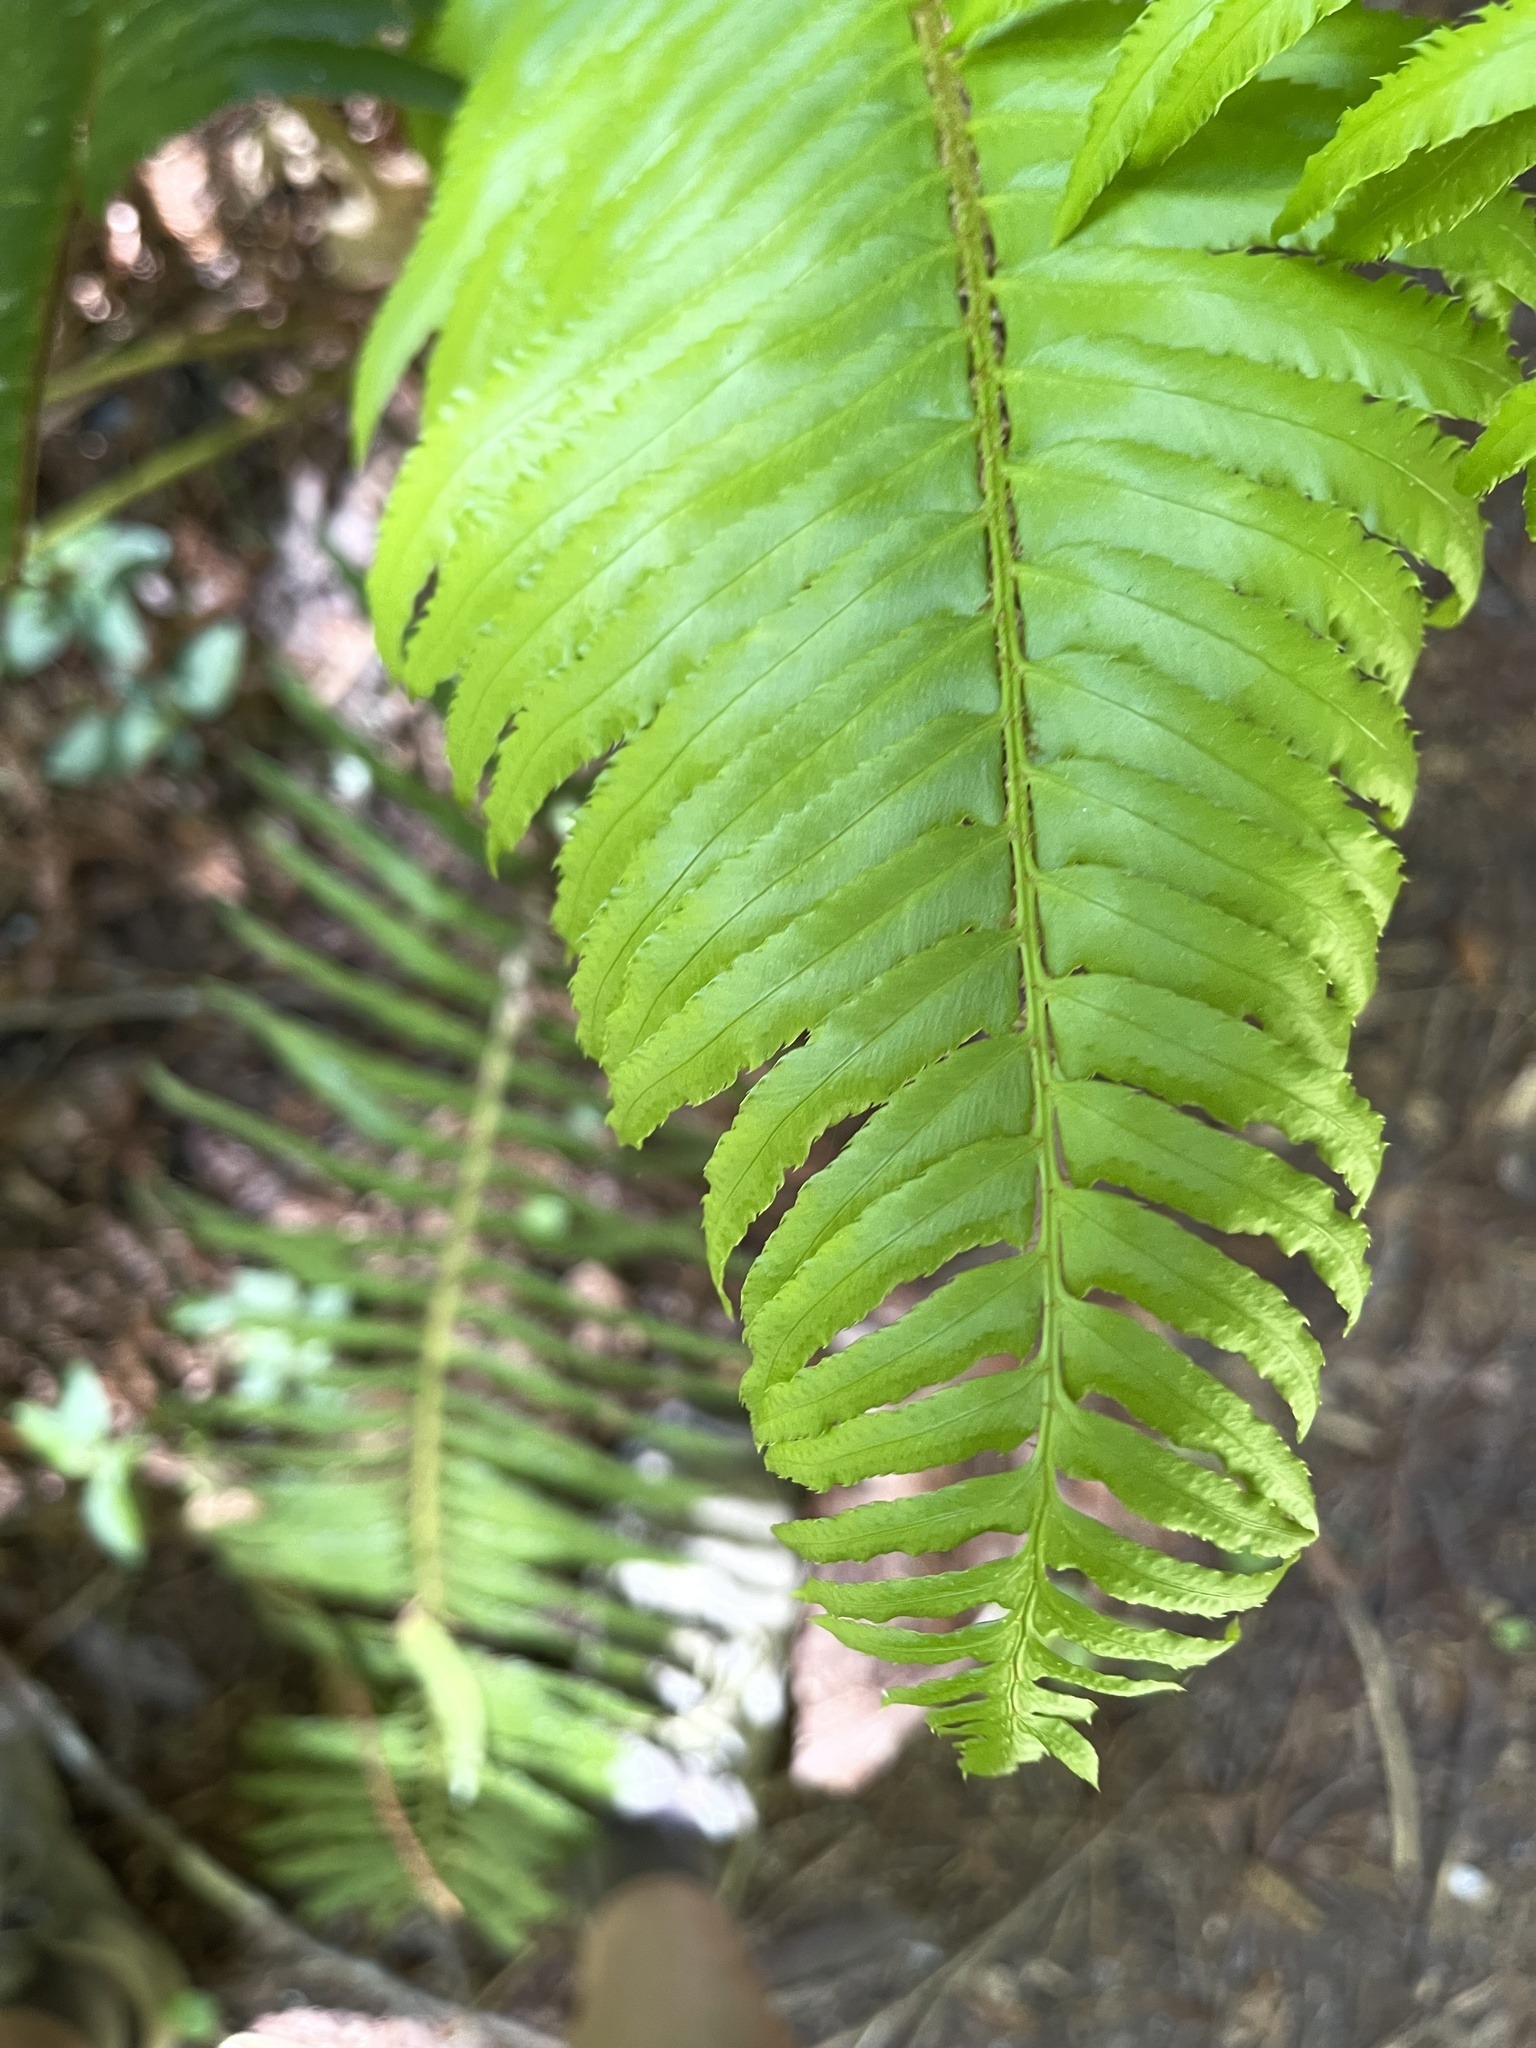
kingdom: Plantae
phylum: Tracheophyta
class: Polypodiopsida
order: Polypodiales
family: Dryopteridaceae
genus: Polystichum
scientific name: Polystichum munitum
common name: Western sword-fern
